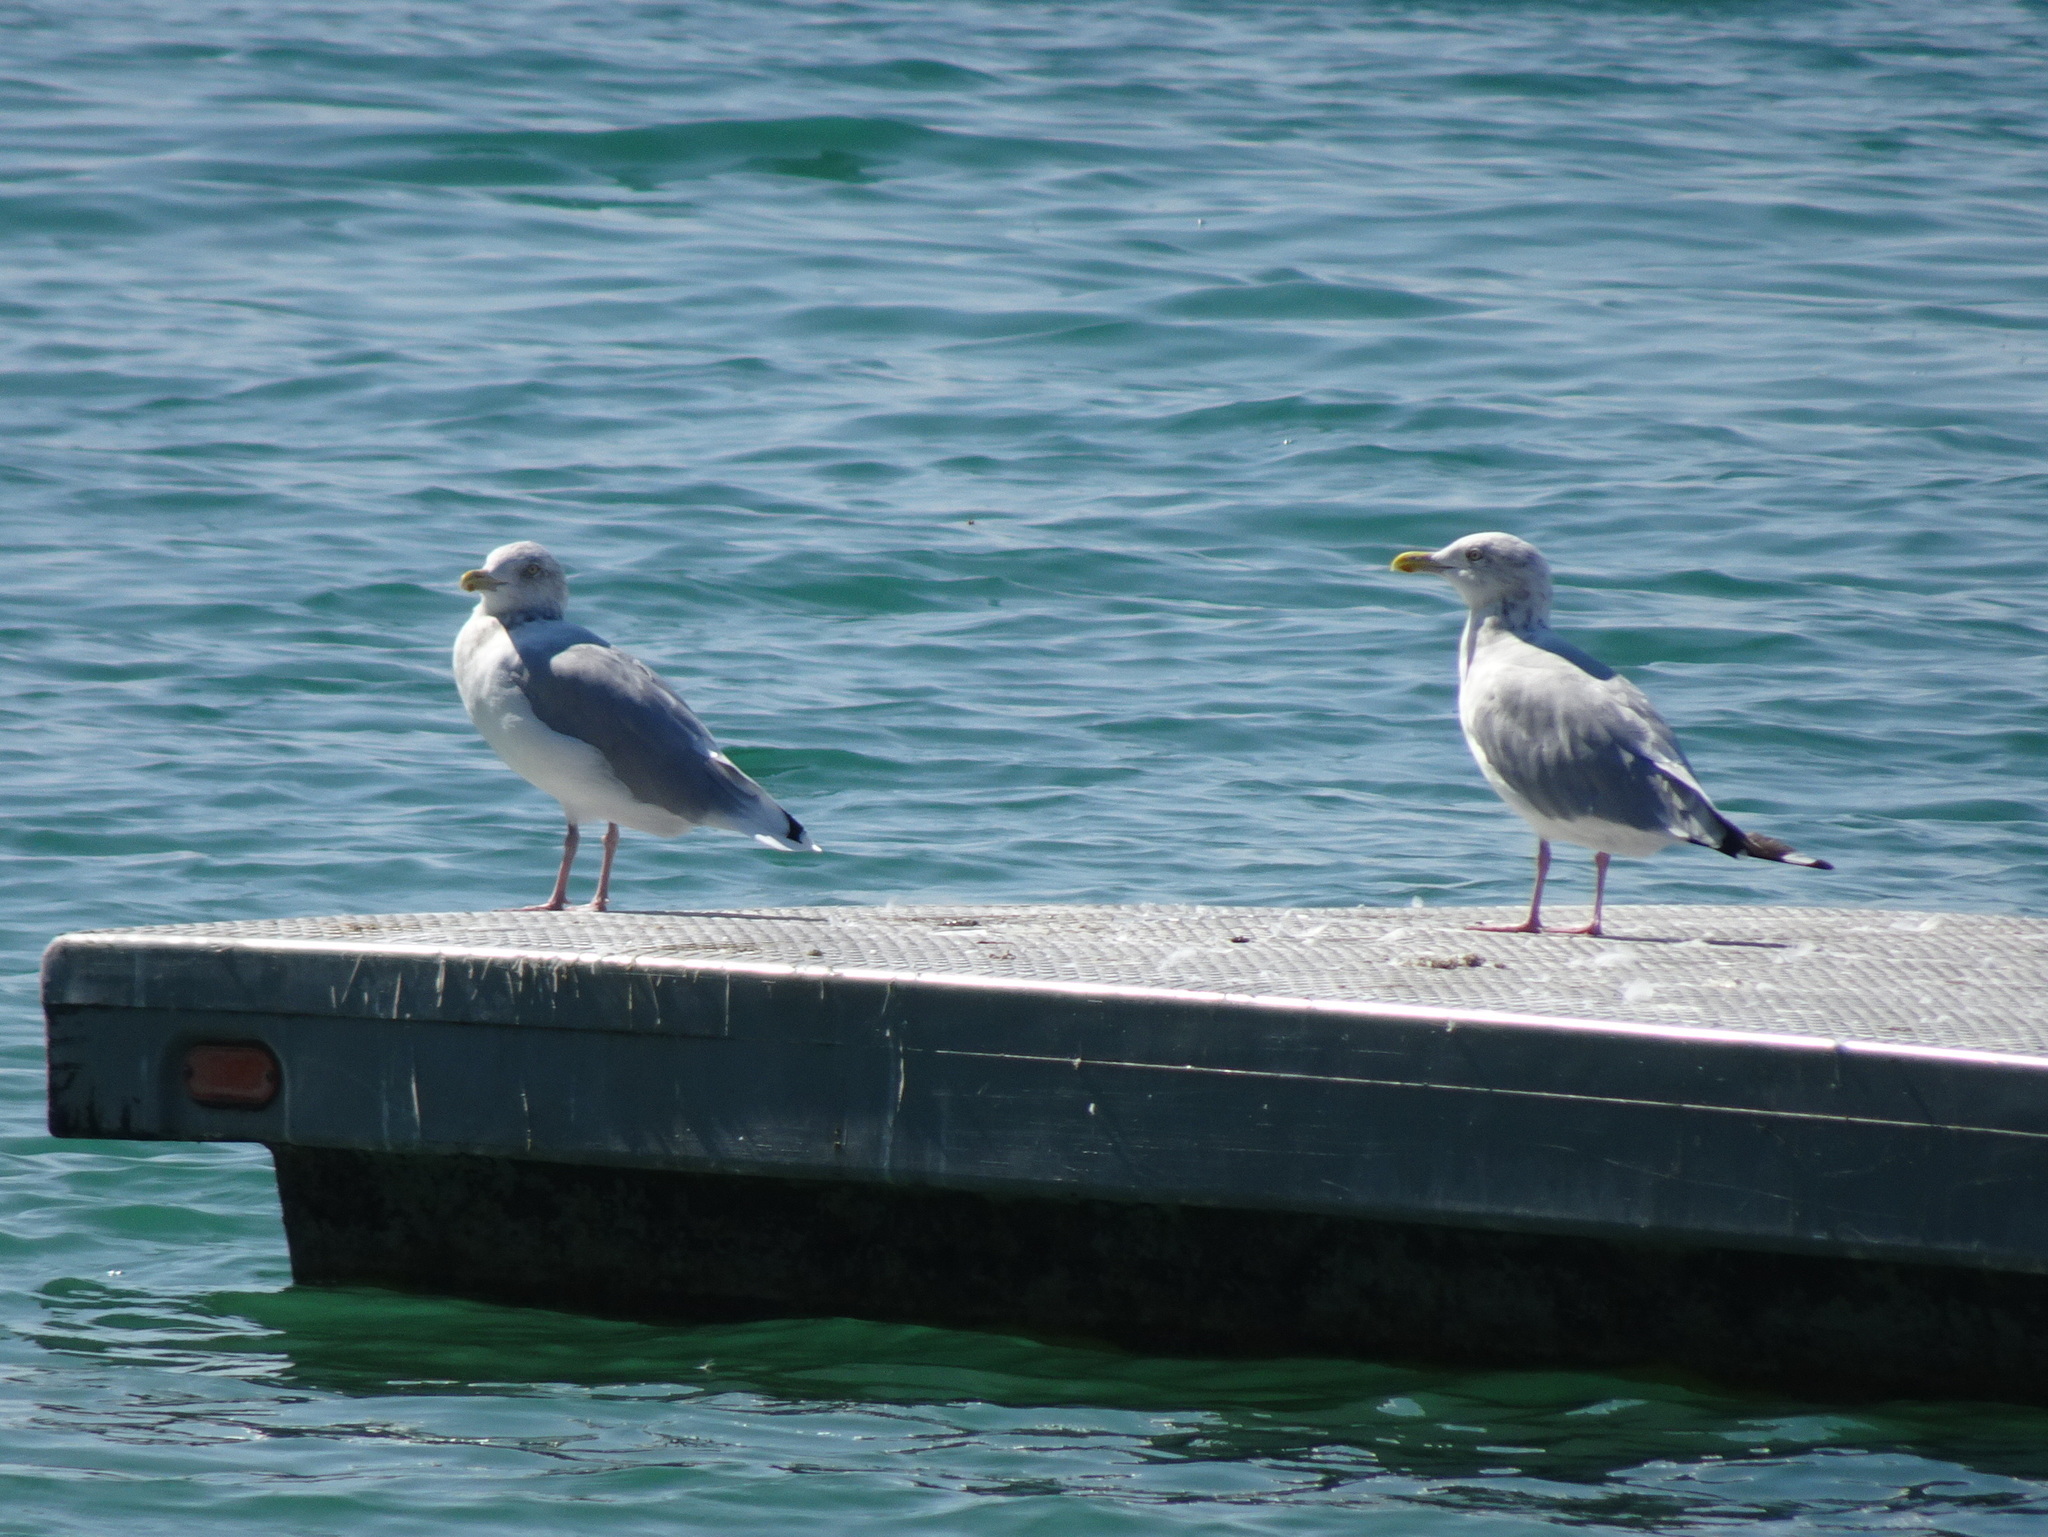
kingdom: Animalia
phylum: Chordata
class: Aves
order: Charadriiformes
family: Laridae
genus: Larus
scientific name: Larus argentatus
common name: Herring gull
